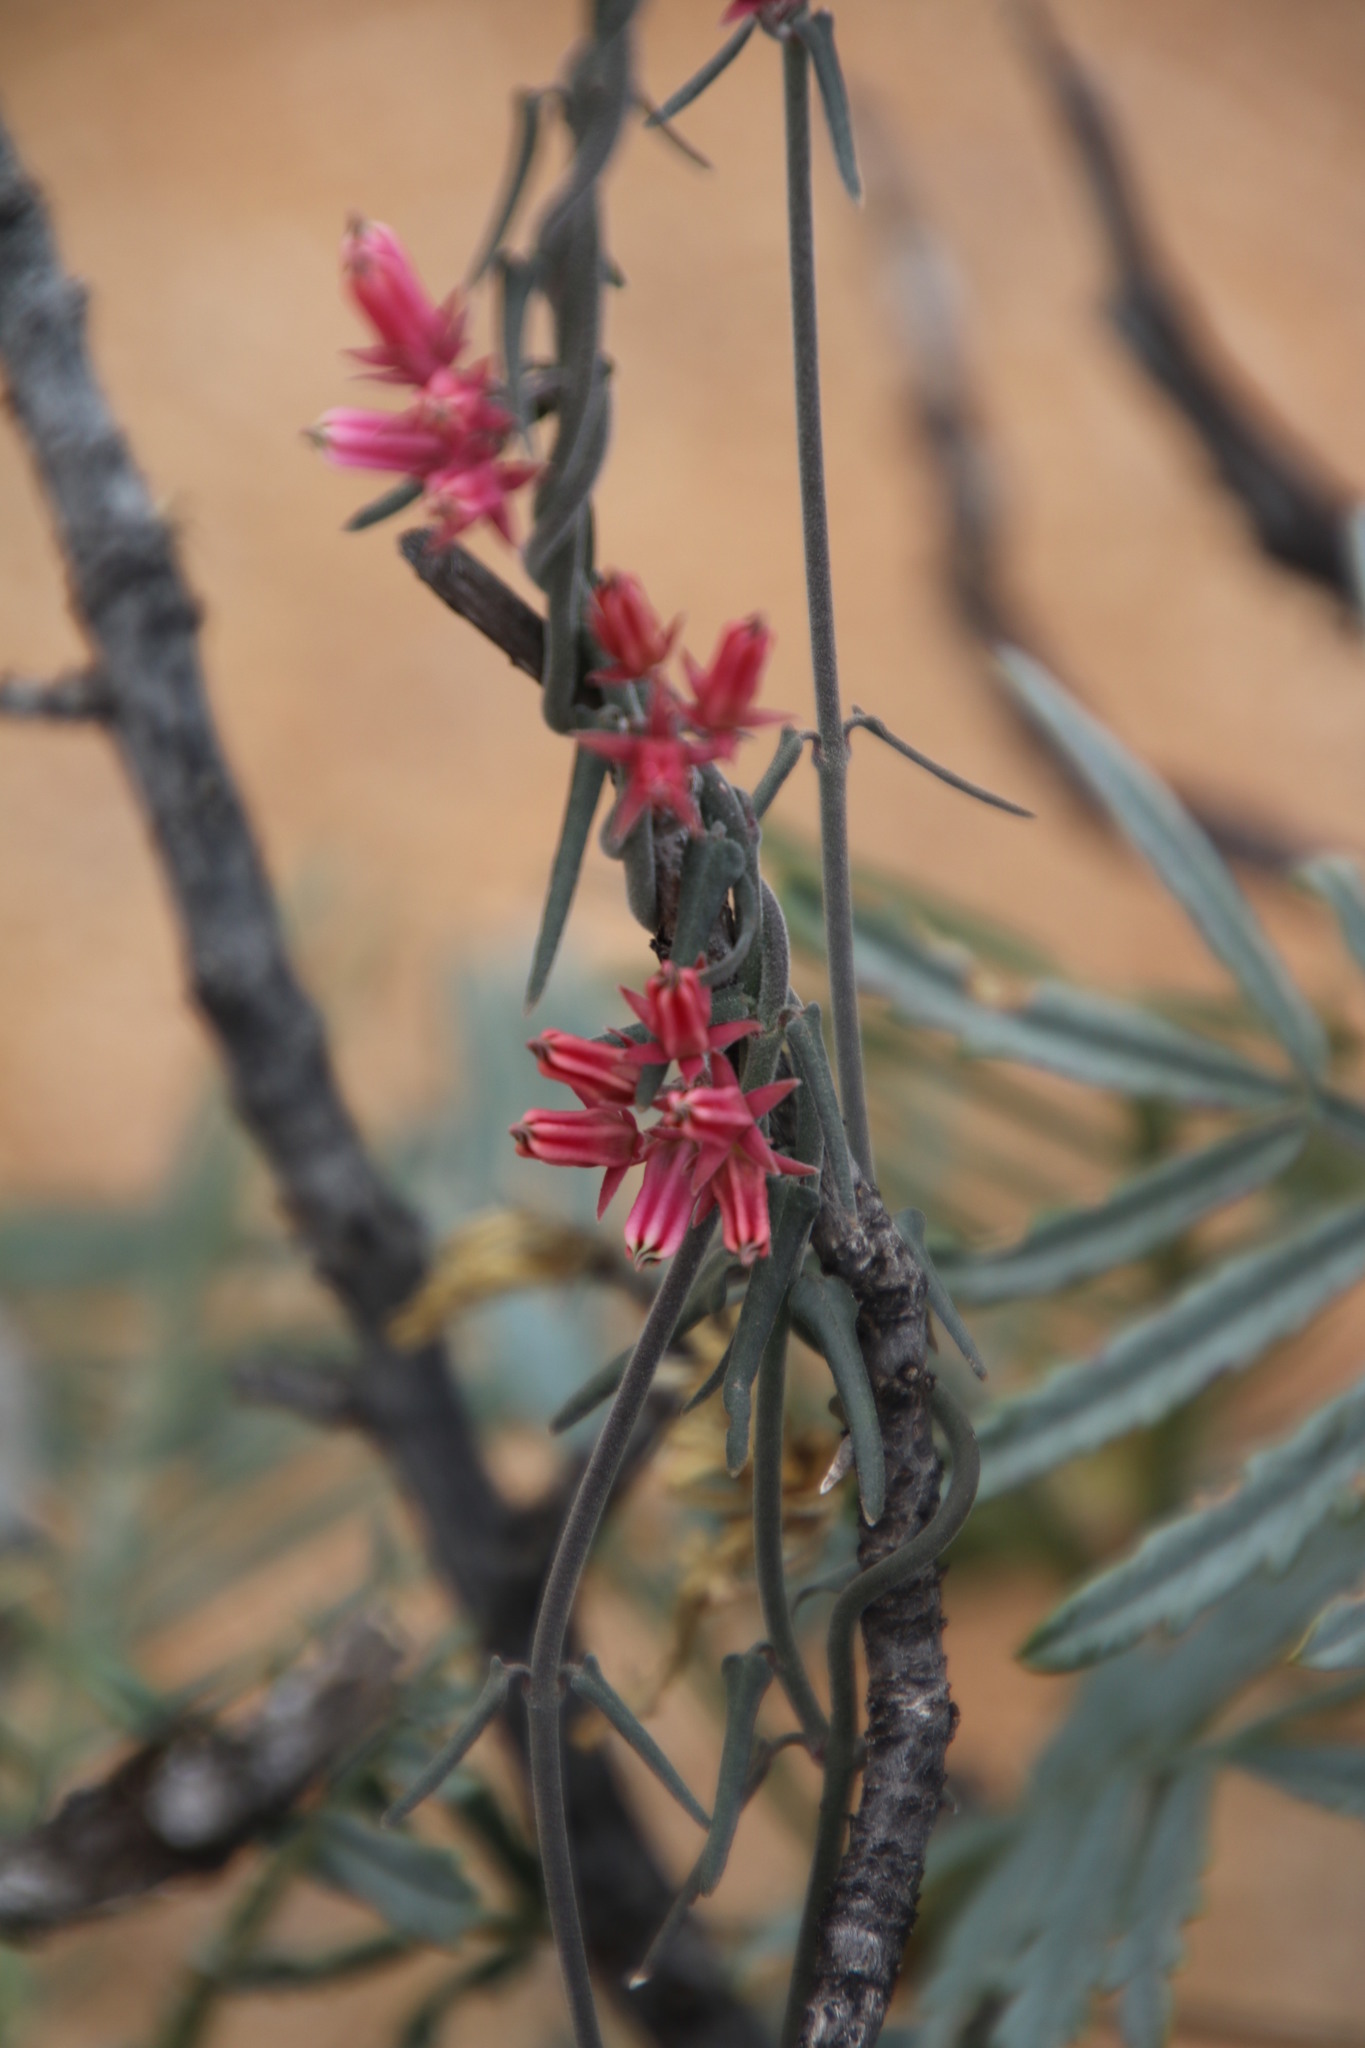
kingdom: Plantae
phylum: Tracheophyta
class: Magnoliopsida
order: Gentianales
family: Apocynaceae
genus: Microloma
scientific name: Microloma sagittatum
